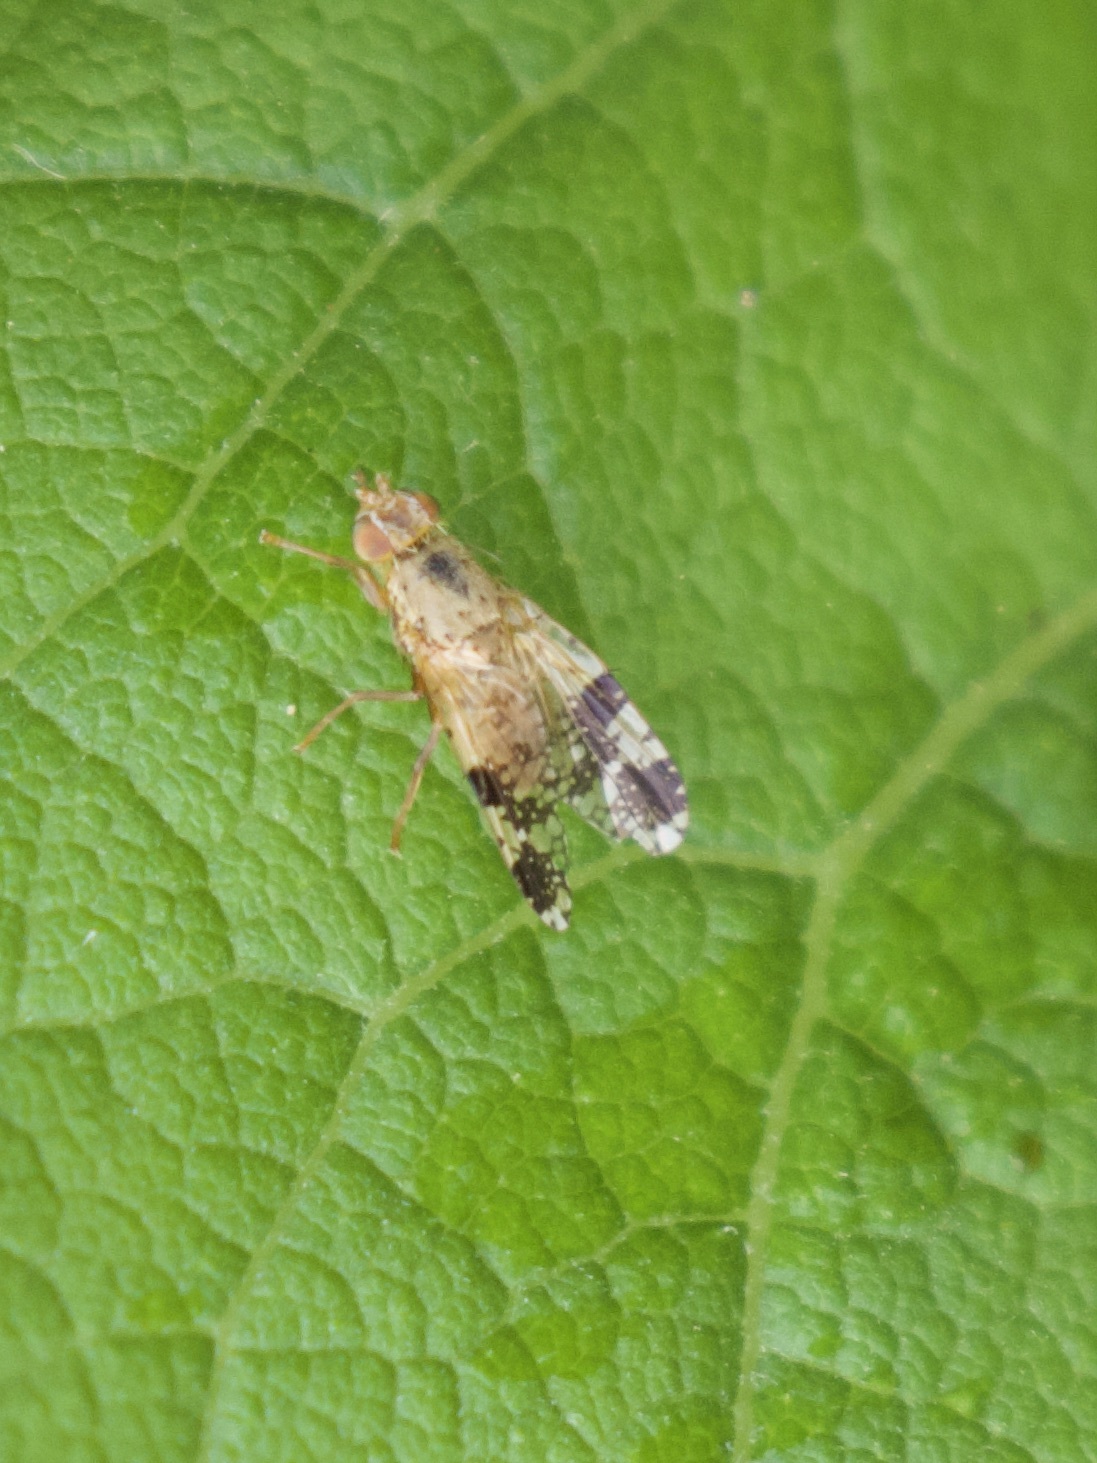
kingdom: Animalia
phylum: Arthropoda
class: Insecta
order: Diptera
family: Tephritidae
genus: Tephritis
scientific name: Tephritis bardanae
